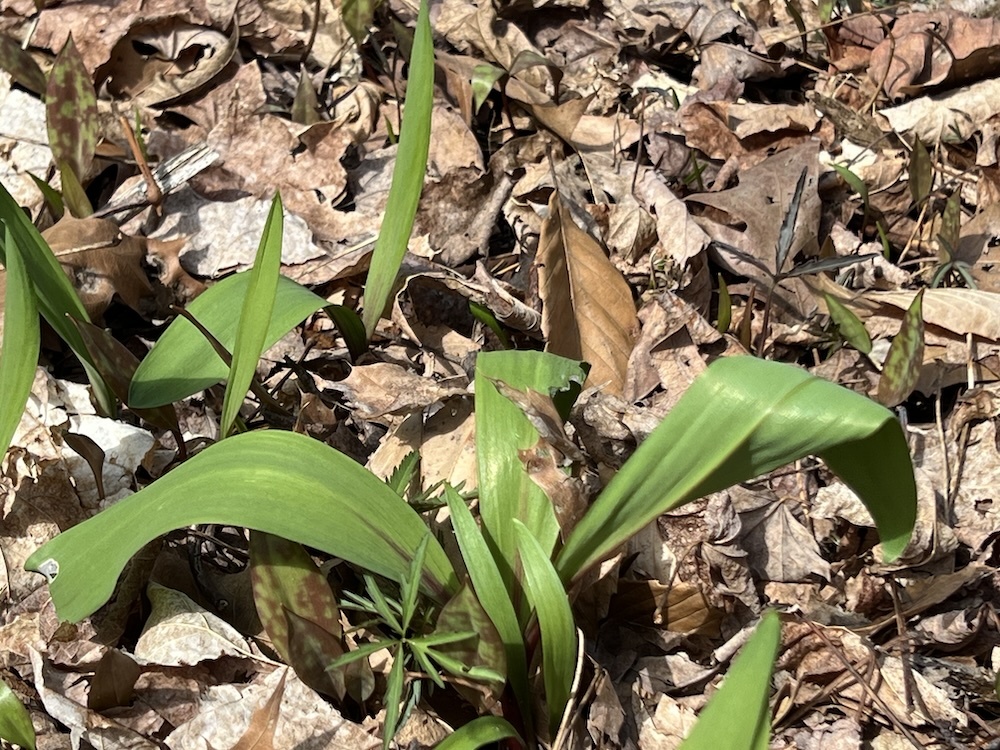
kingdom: Plantae
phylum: Tracheophyta
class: Liliopsida
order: Asparagales
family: Amaryllidaceae
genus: Allium
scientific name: Allium tricoccum
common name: Ramp
